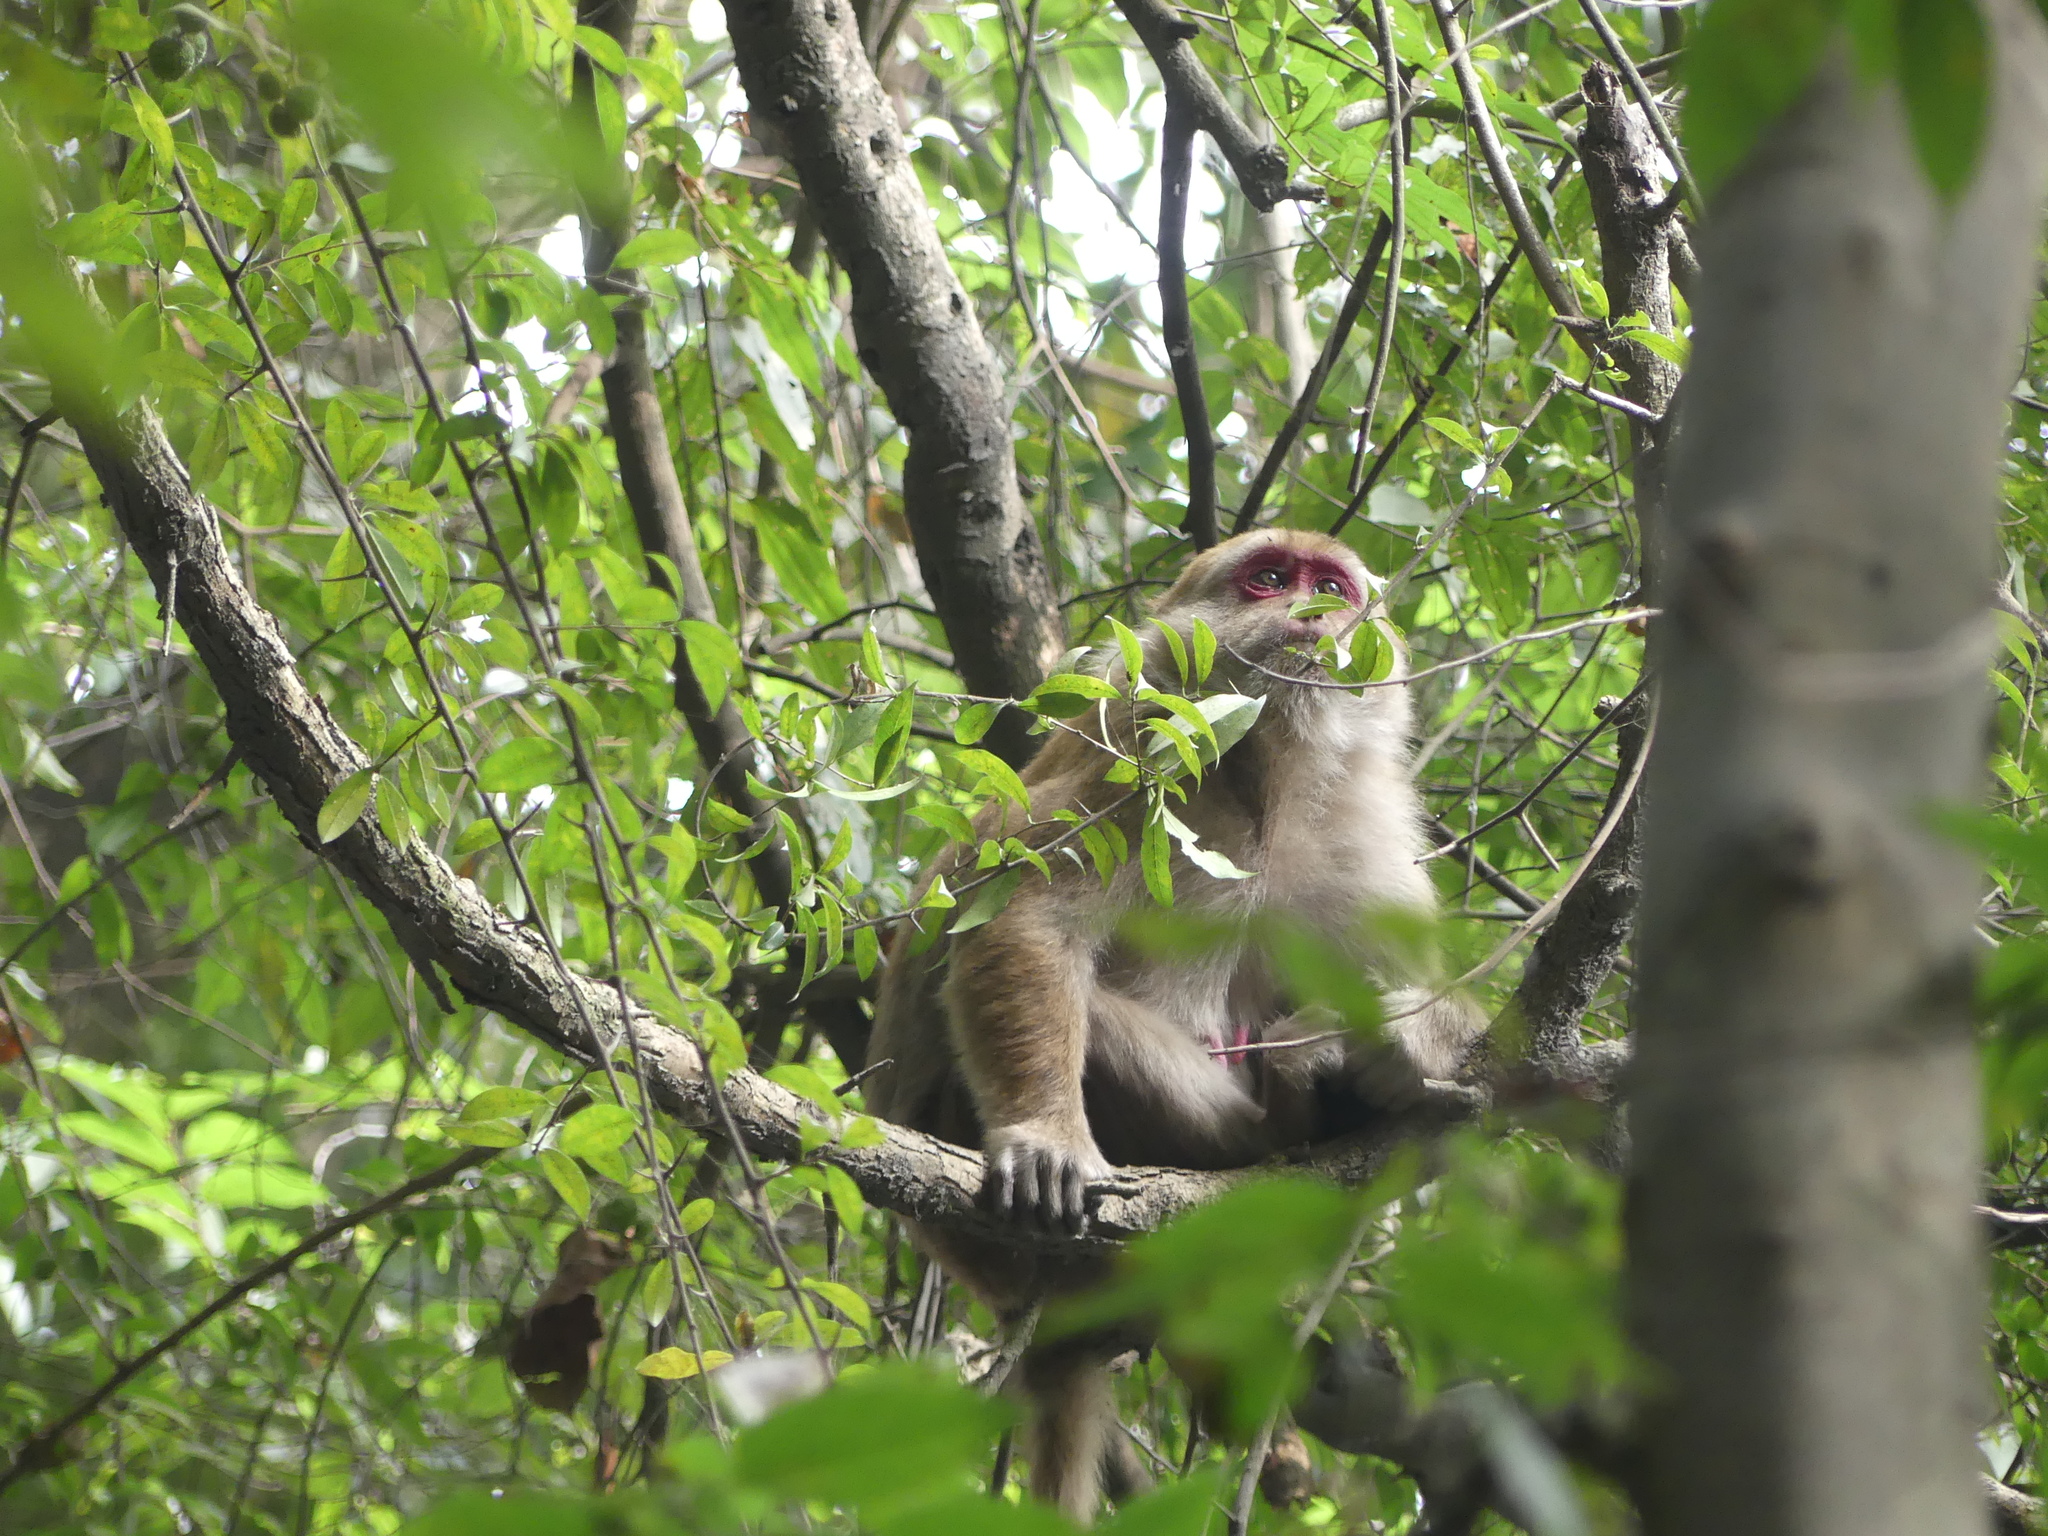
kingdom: Animalia
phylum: Chordata
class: Mammalia
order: Primates
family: Cercopithecidae
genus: Macaca
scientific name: Macaca assamensis
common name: Assam macaque
